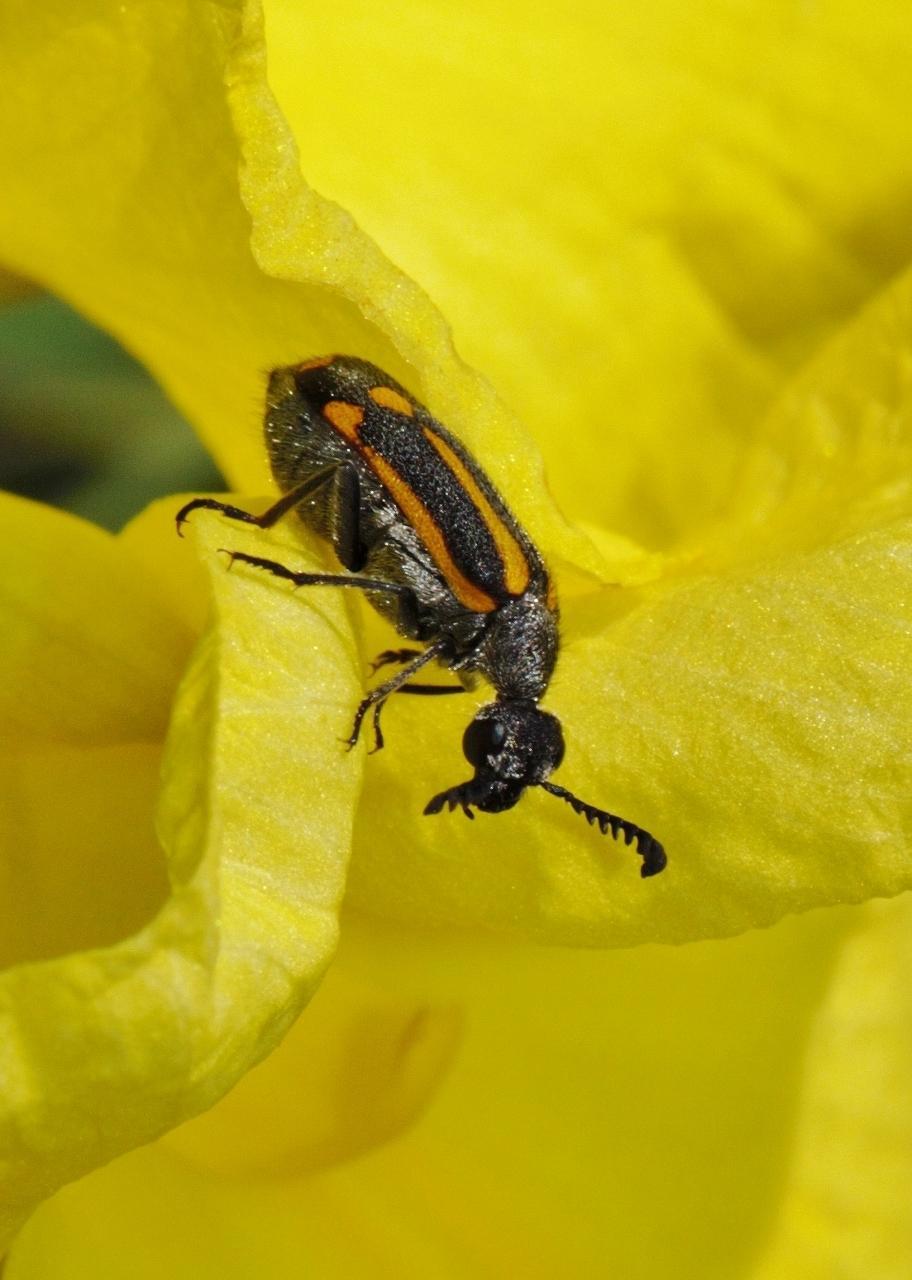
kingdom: Animalia
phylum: Arthropoda
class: Insecta
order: Coleoptera
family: Meloidae
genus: Ceroctis
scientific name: Ceroctis
